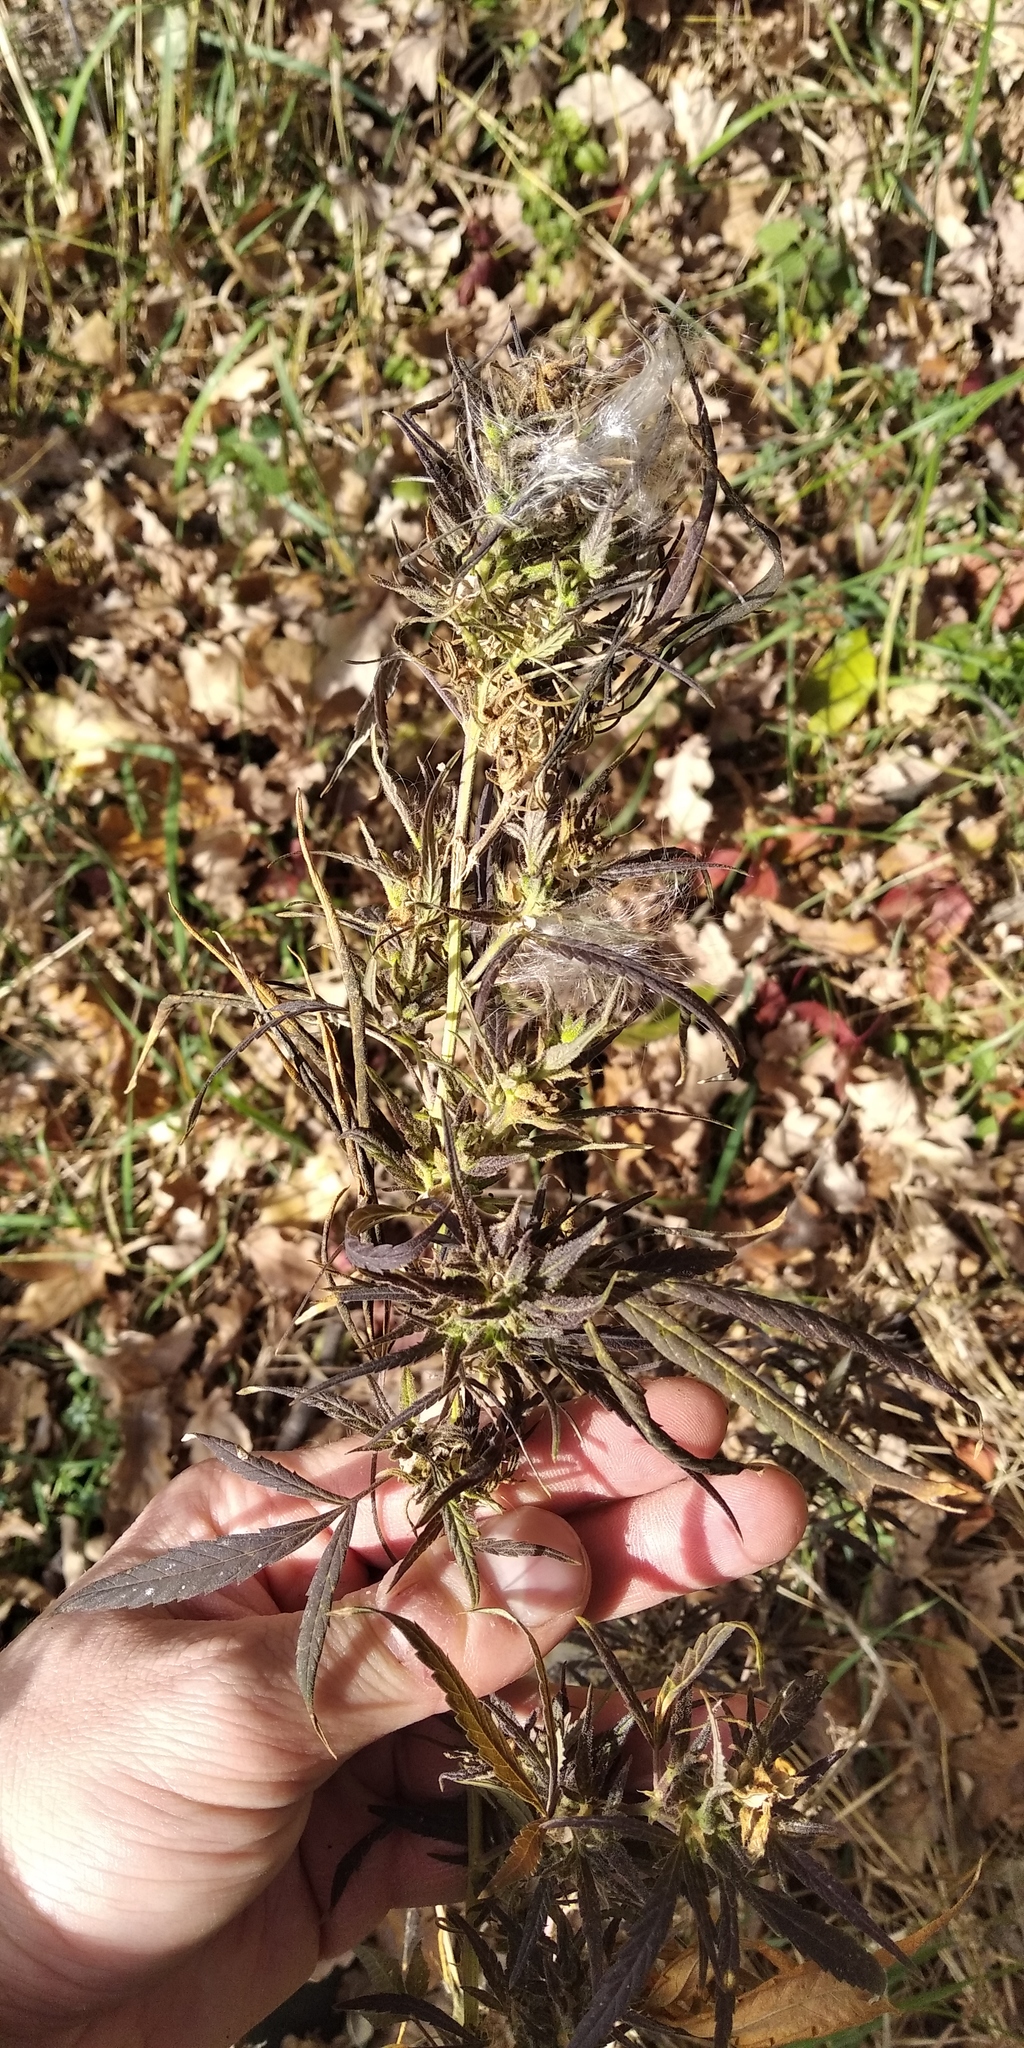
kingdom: Plantae
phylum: Tracheophyta
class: Magnoliopsida
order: Rosales
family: Cannabaceae
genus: Cannabis
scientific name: Cannabis sativa
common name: Hemp
